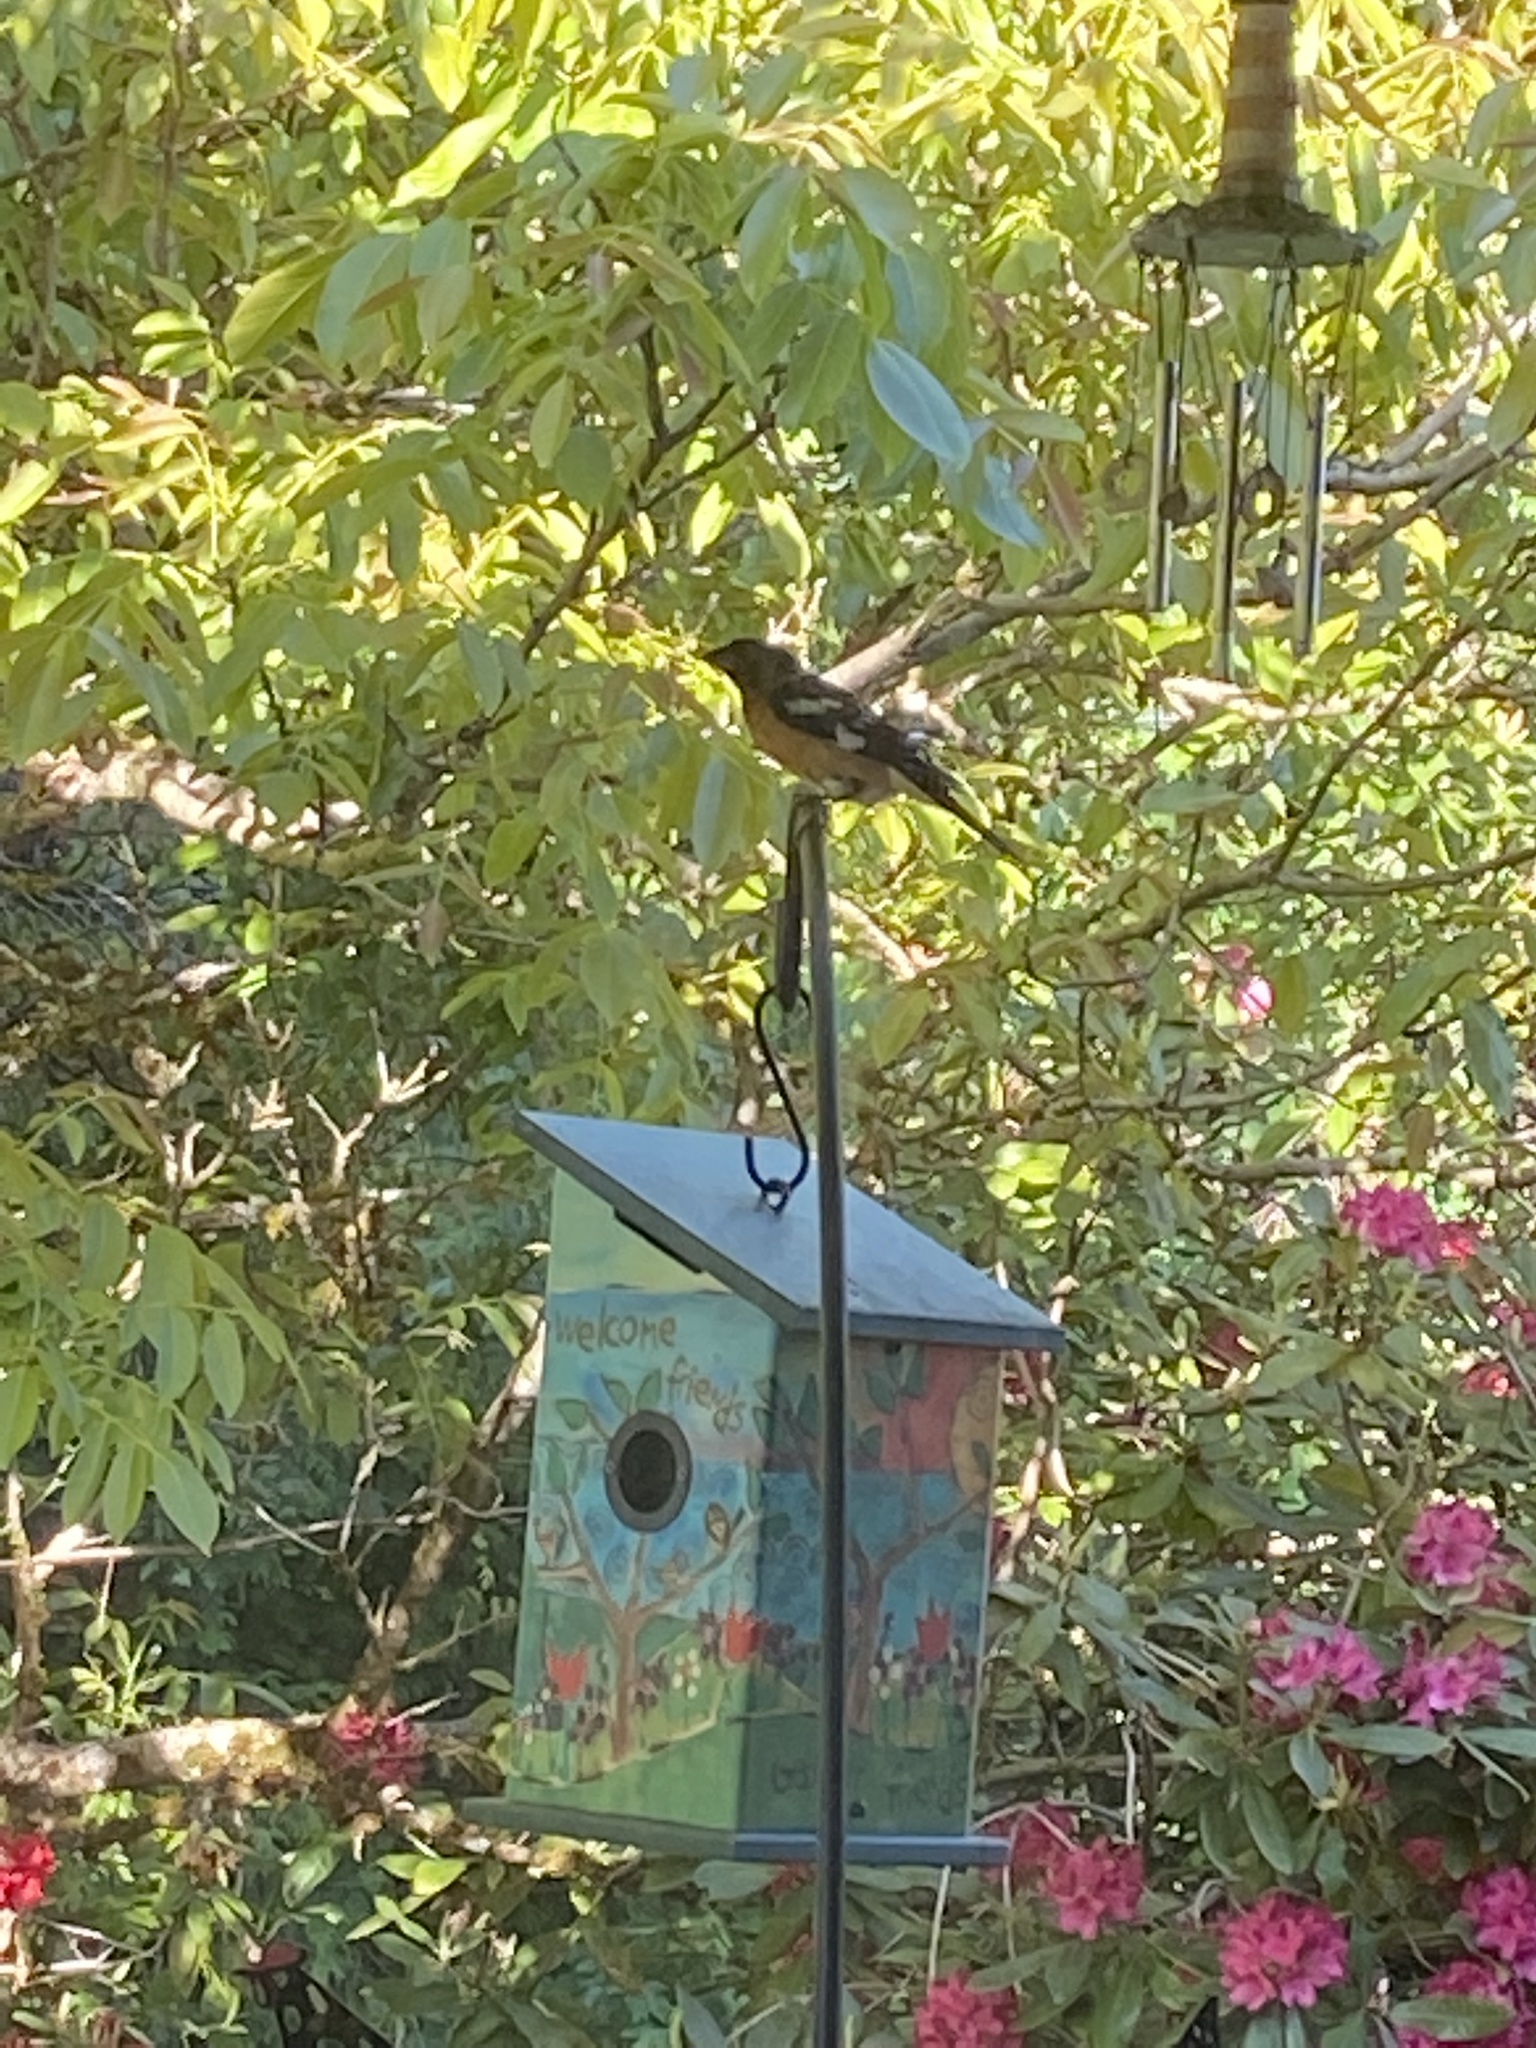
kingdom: Animalia
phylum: Chordata
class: Aves
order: Passeriformes
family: Cardinalidae
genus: Pheucticus
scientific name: Pheucticus melanocephalus
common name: Black-headed grosbeak
